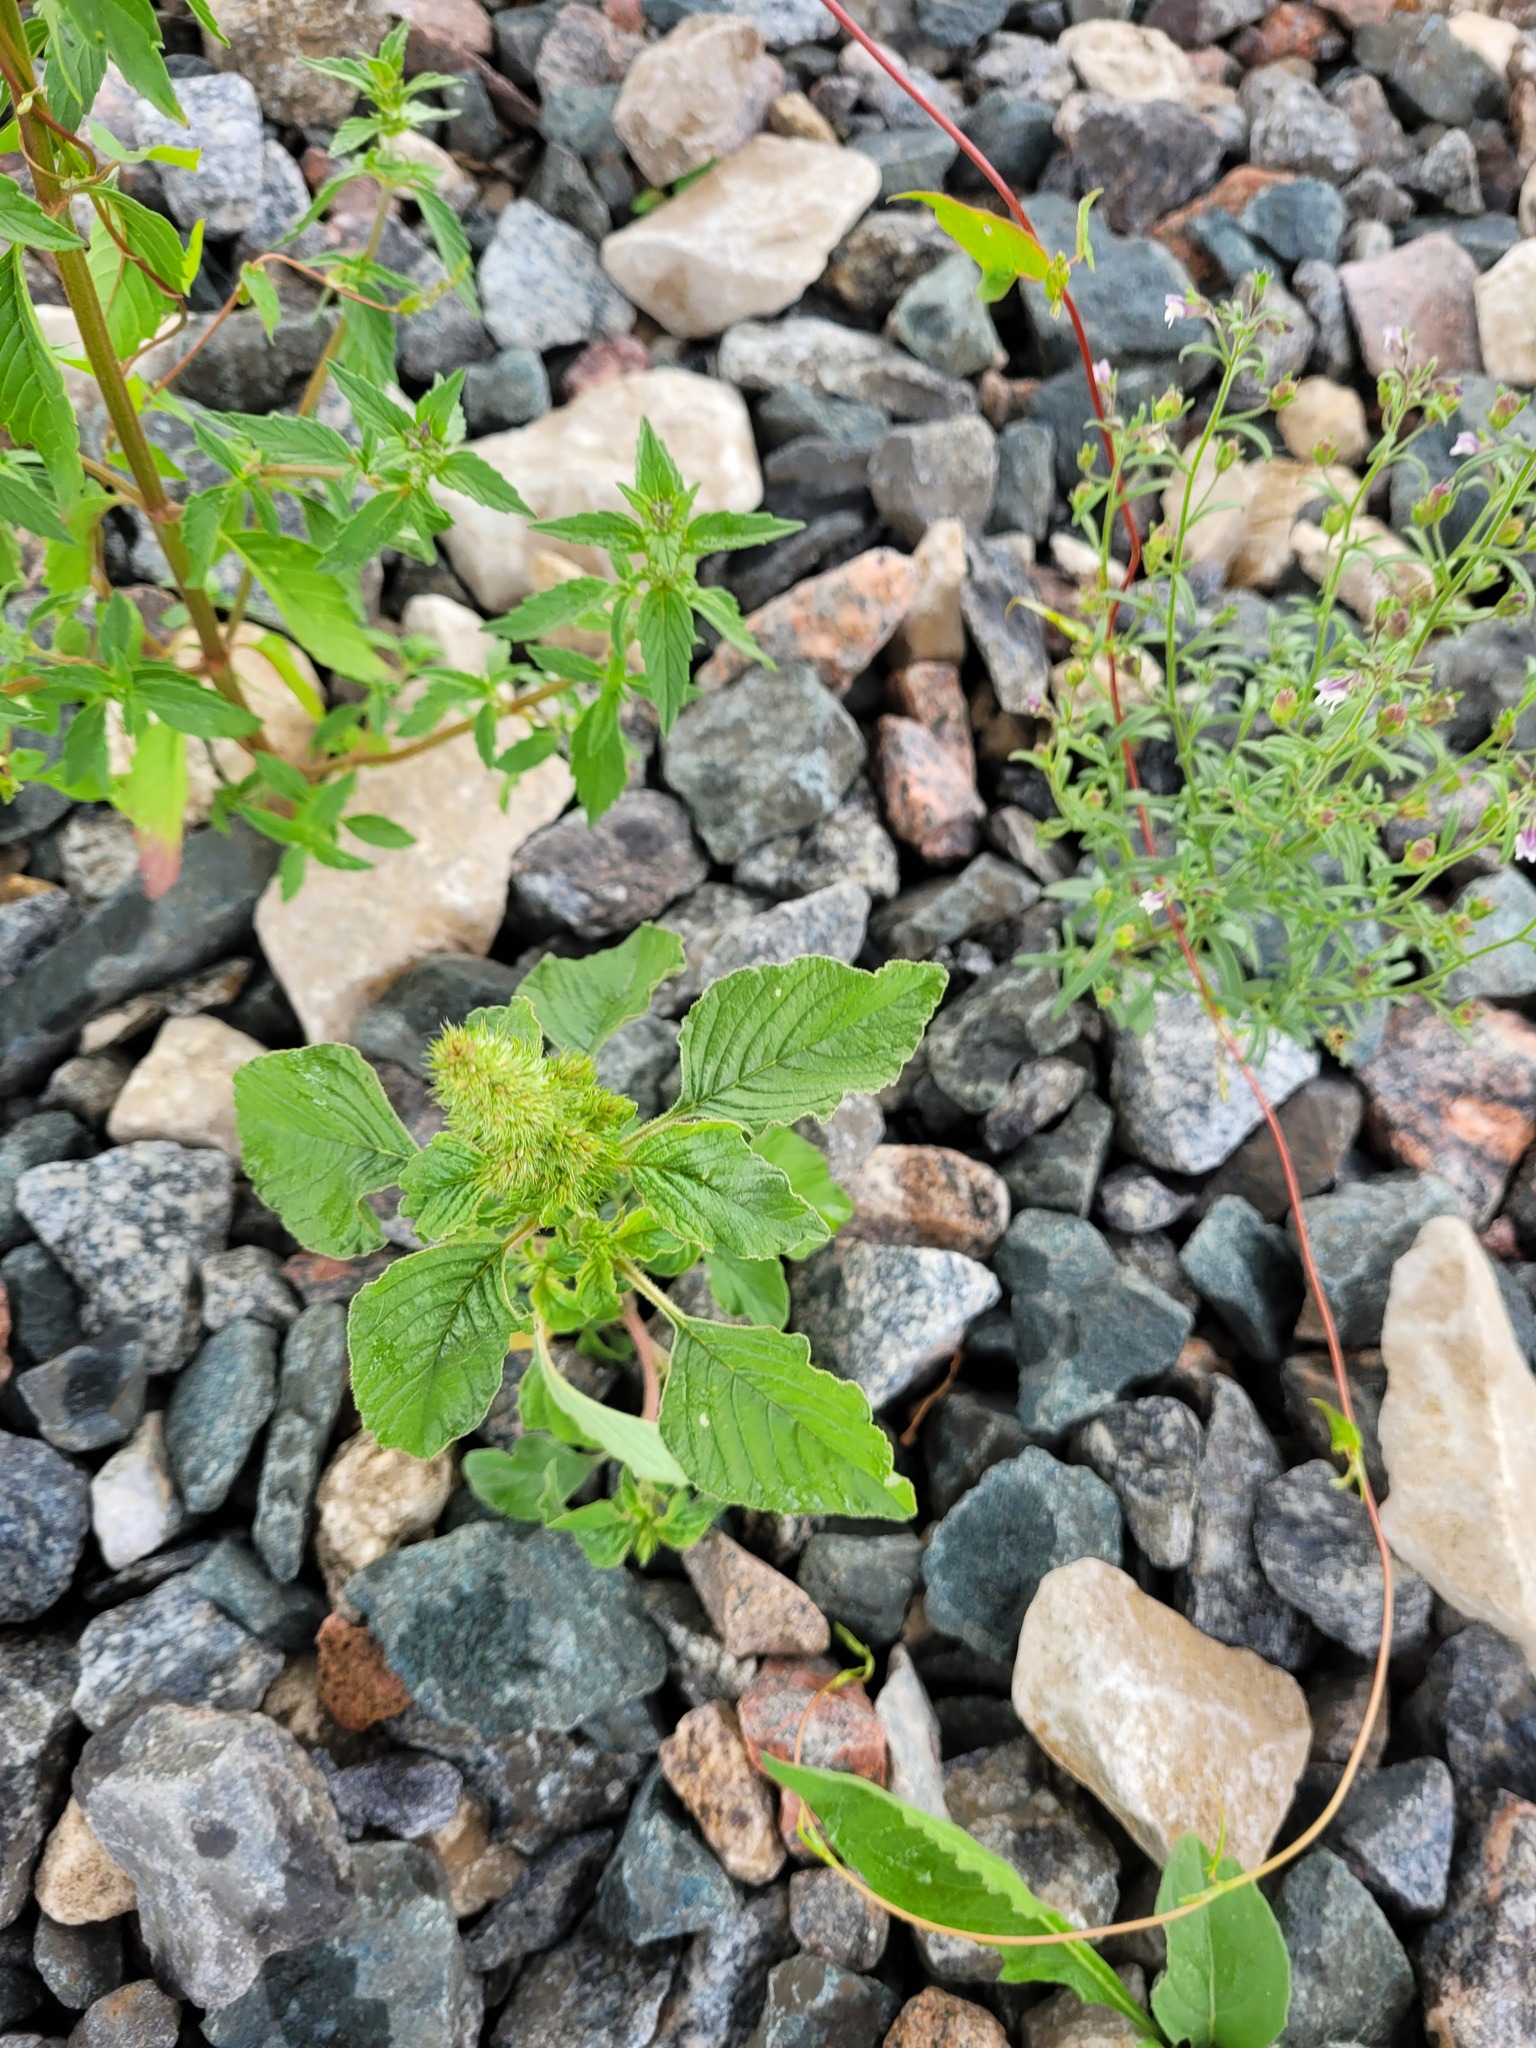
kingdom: Plantae
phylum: Tracheophyta
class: Magnoliopsida
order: Caryophyllales
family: Amaranthaceae
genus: Amaranthus
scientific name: Amaranthus retroflexus
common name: Redroot amaranth
